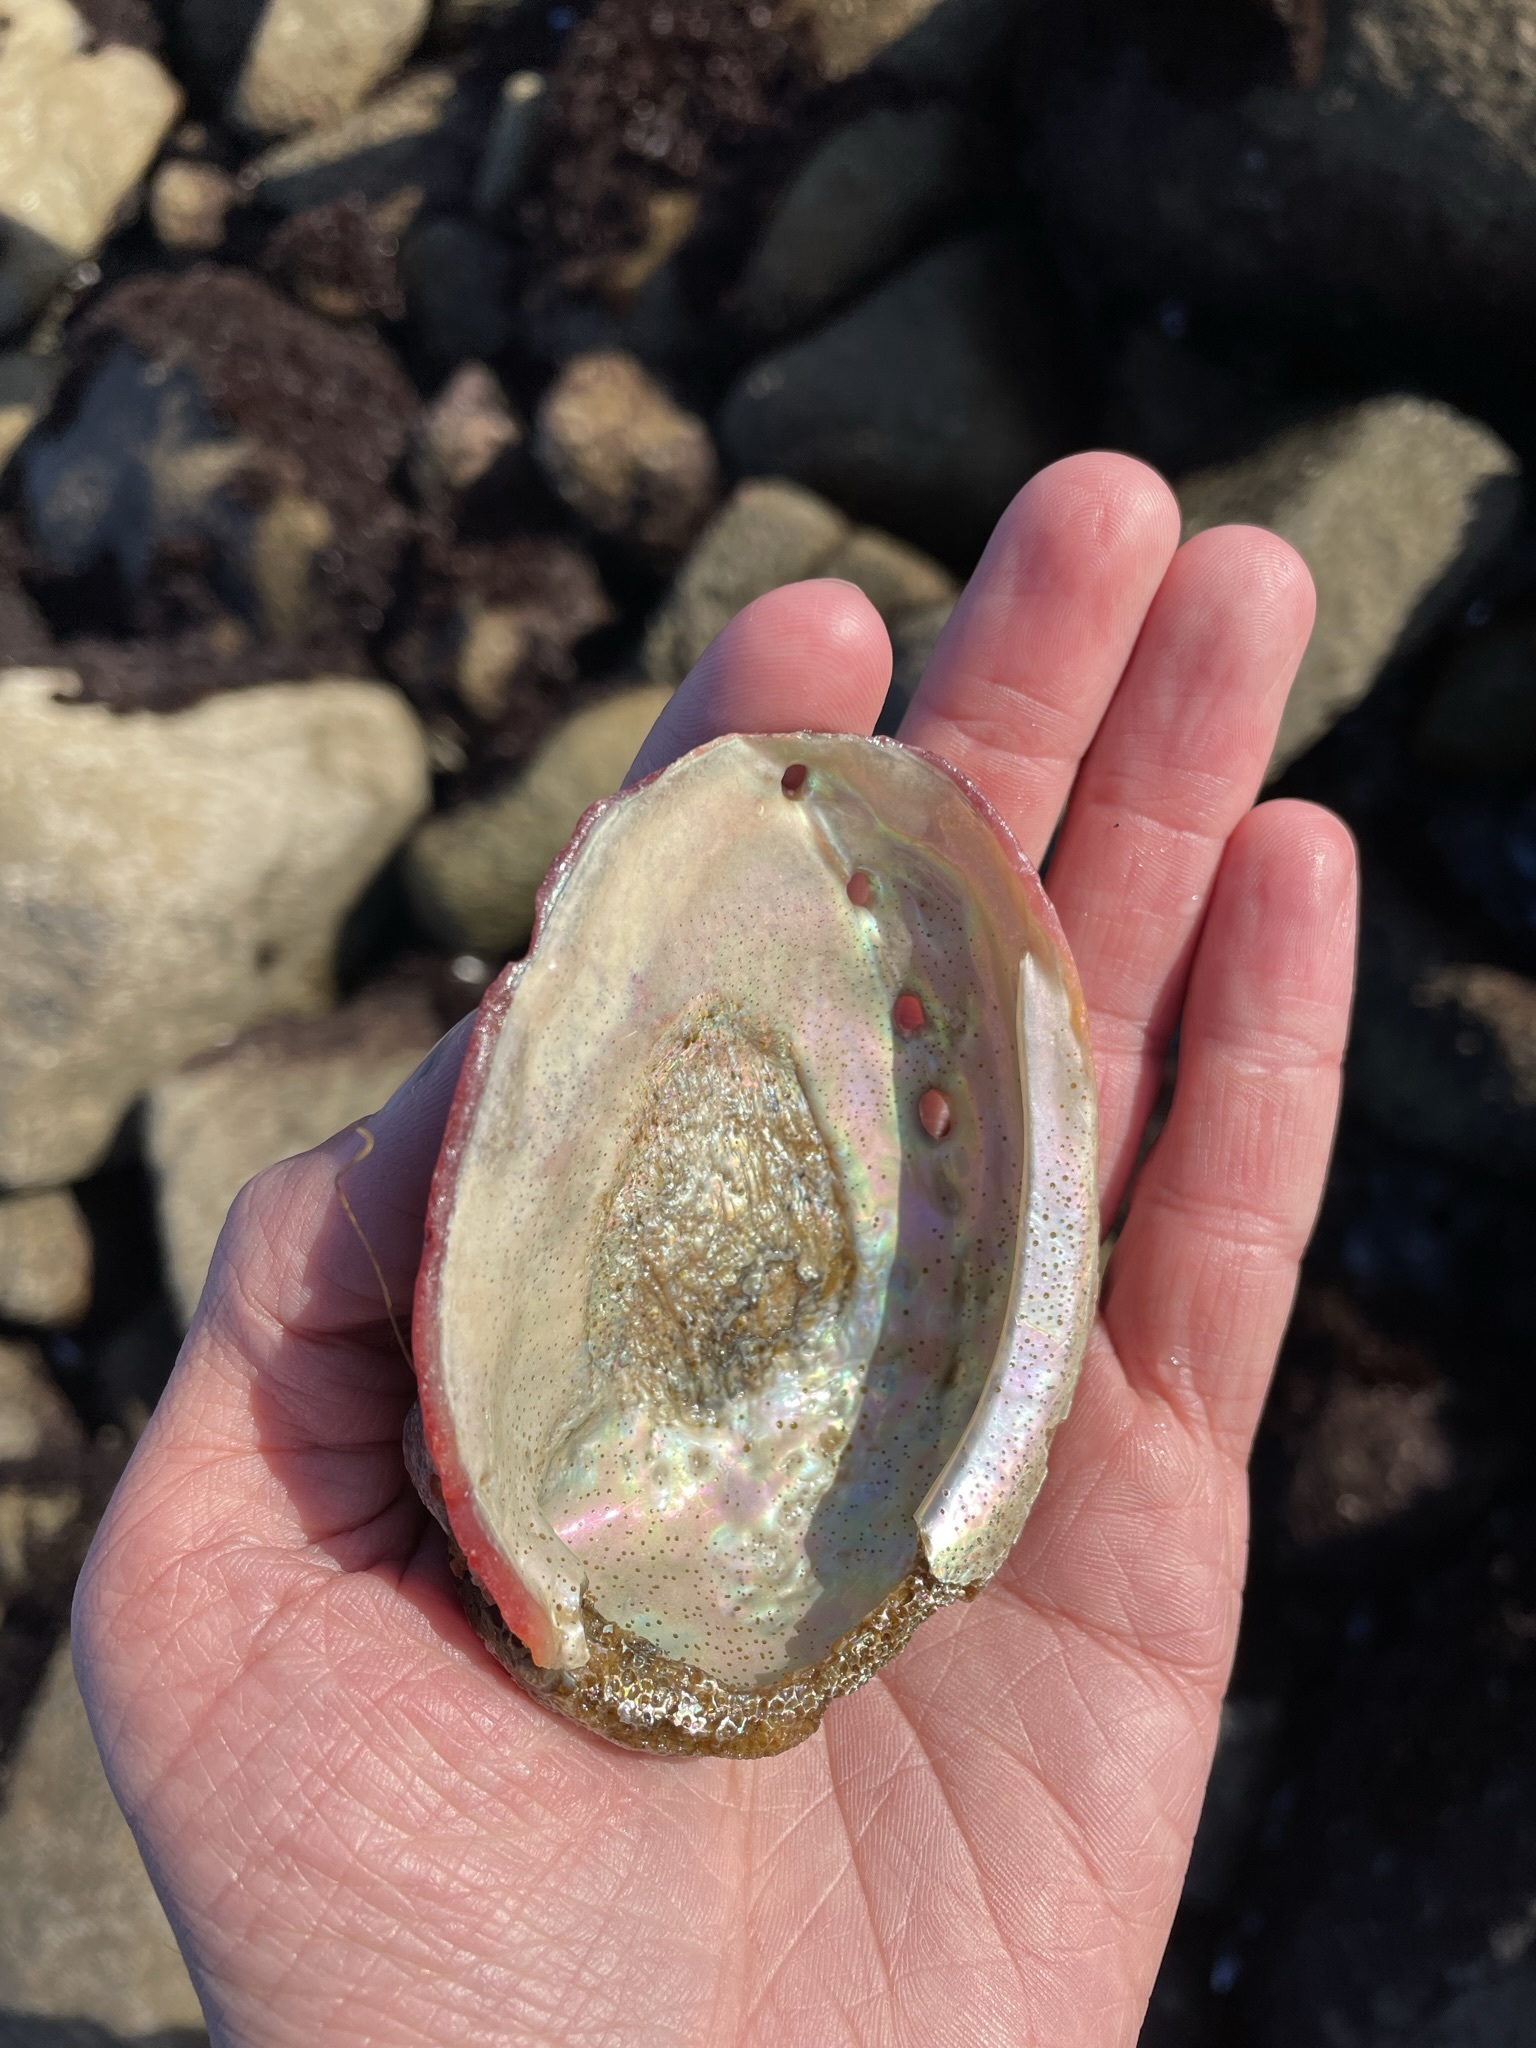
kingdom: Animalia
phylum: Mollusca
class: Gastropoda
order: Lepetellida
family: Haliotidae
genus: Haliotis
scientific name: Haliotis rufescens
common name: Red abalone
